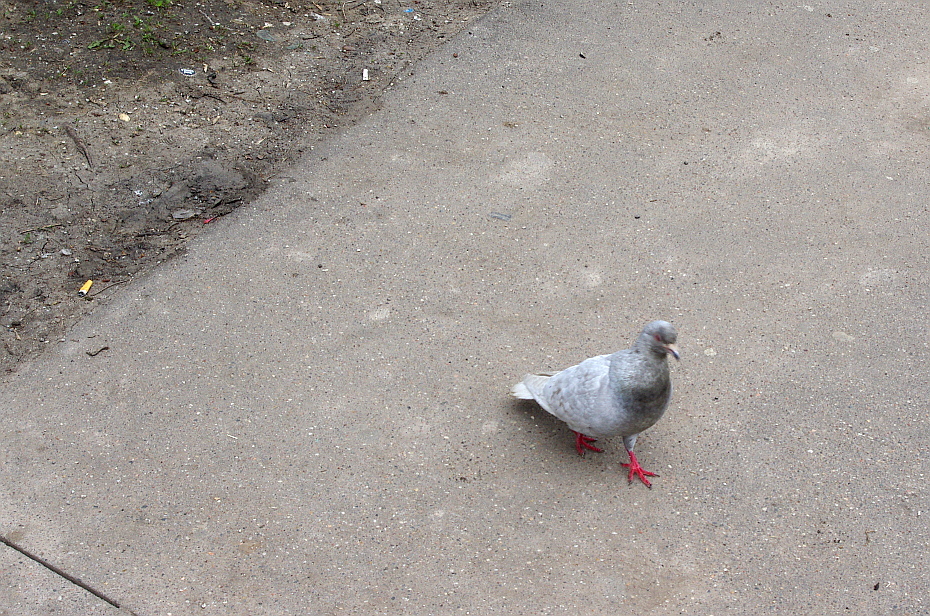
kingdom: Animalia
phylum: Chordata
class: Aves
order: Columbiformes
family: Columbidae
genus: Columba
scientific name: Columba livia
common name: Rock pigeon
